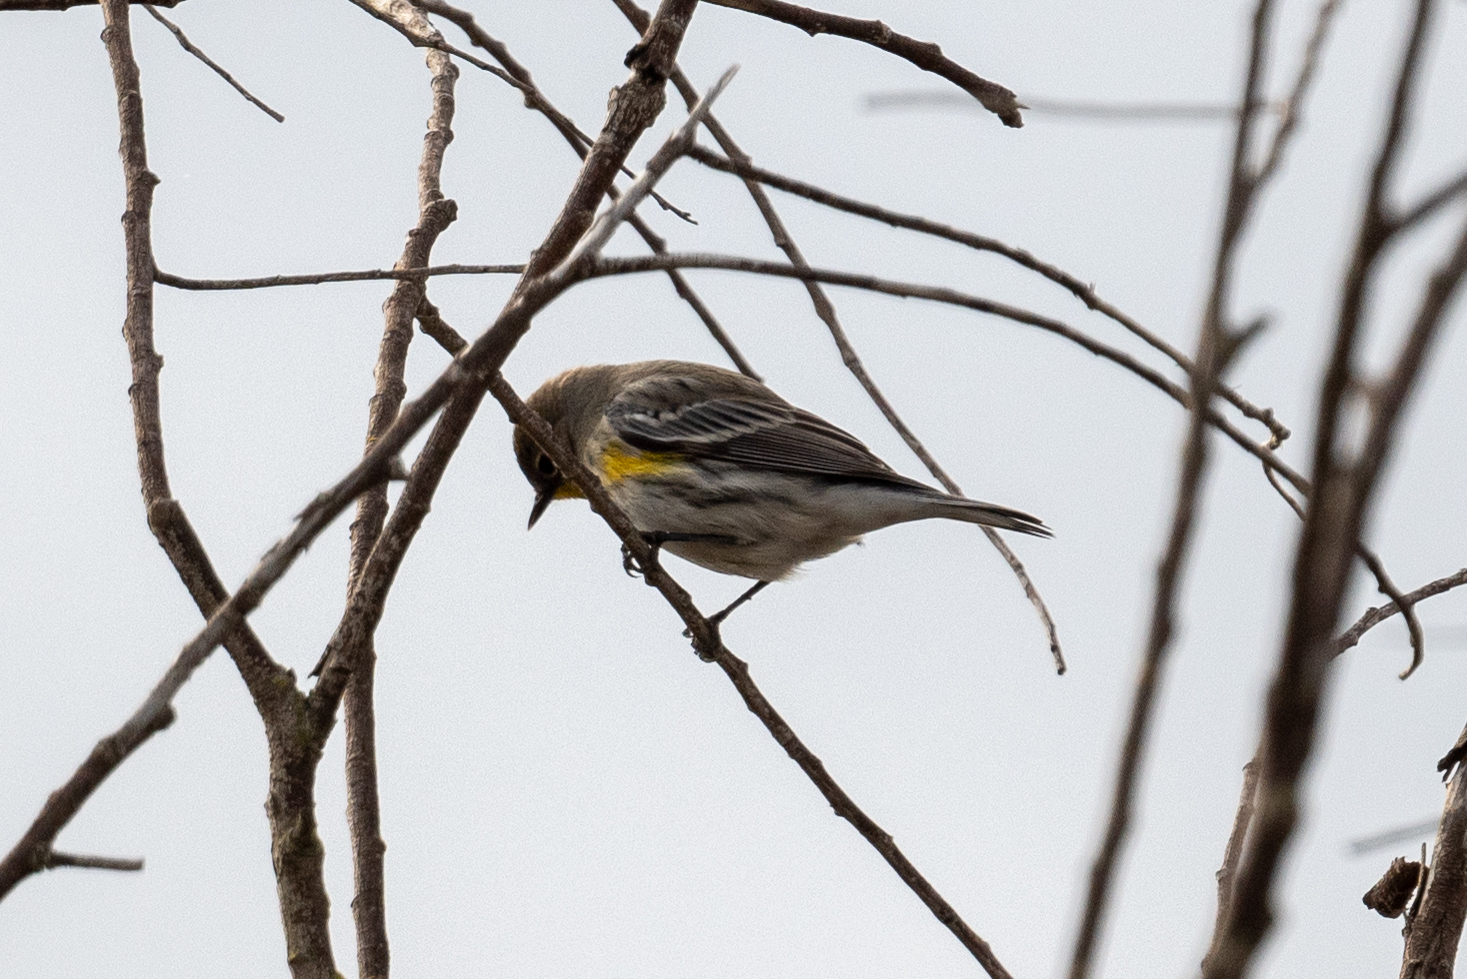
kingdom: Animalia
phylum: Chordata
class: Aves
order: Passeriformes
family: Parulidae
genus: Setophaga
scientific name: Setophaga coronata
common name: Myrtle warbler
